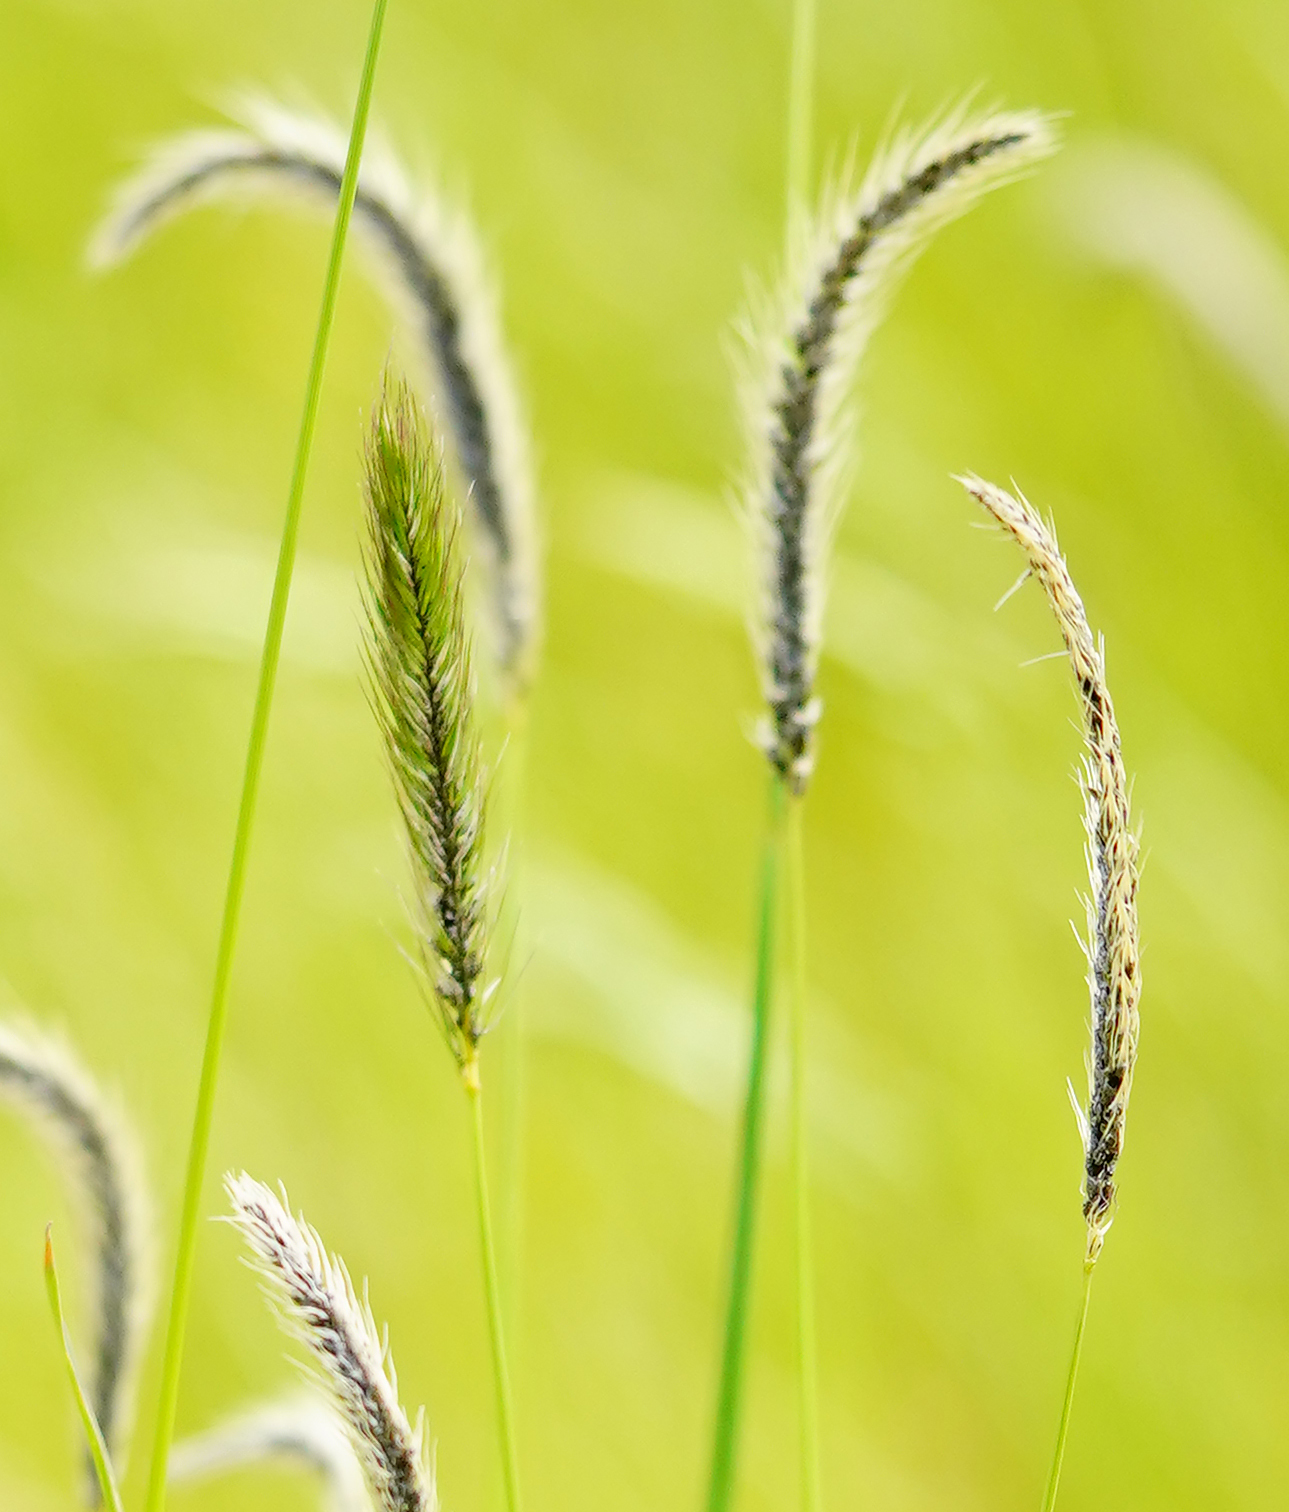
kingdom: Plantae
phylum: Tracheophyta
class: Liliopsida
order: Poales
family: Poaceae
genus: Hordeum
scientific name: Hordeum brachyantherum
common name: Meadow barley
